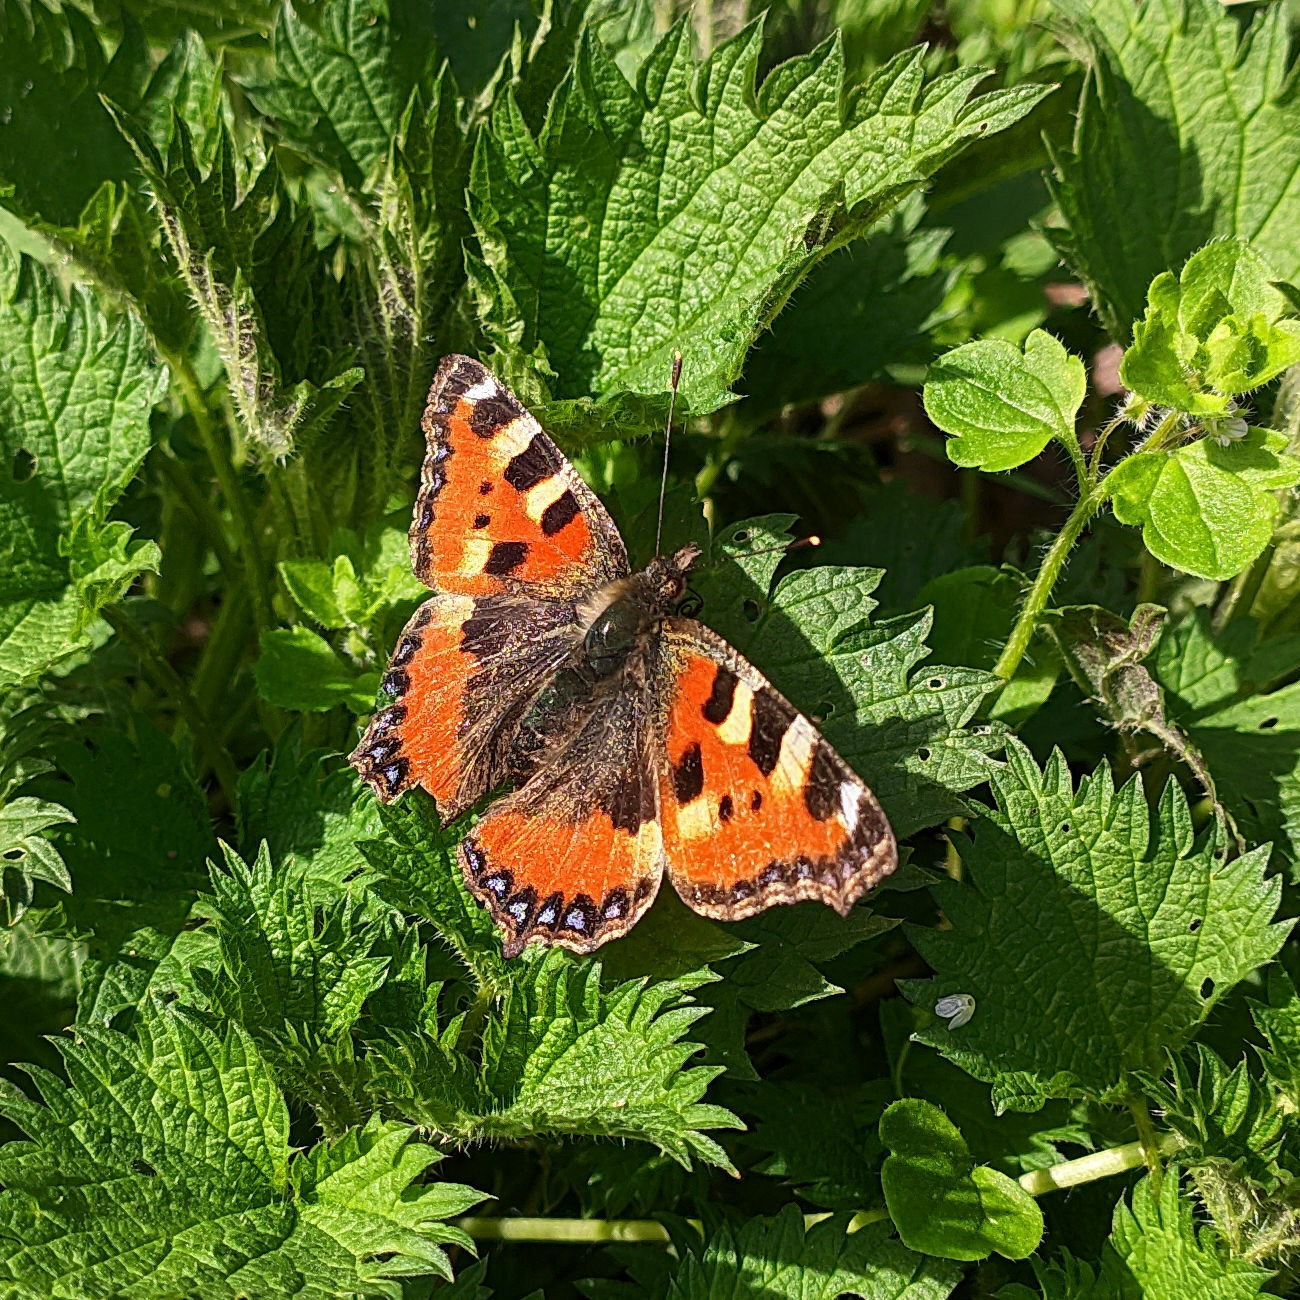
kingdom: Animalia
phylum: Arthropoda
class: Insecta
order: Lepidoptera
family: Nymphalidae
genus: Aglais
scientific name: Aglais urticae
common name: Small tortoiseshell
